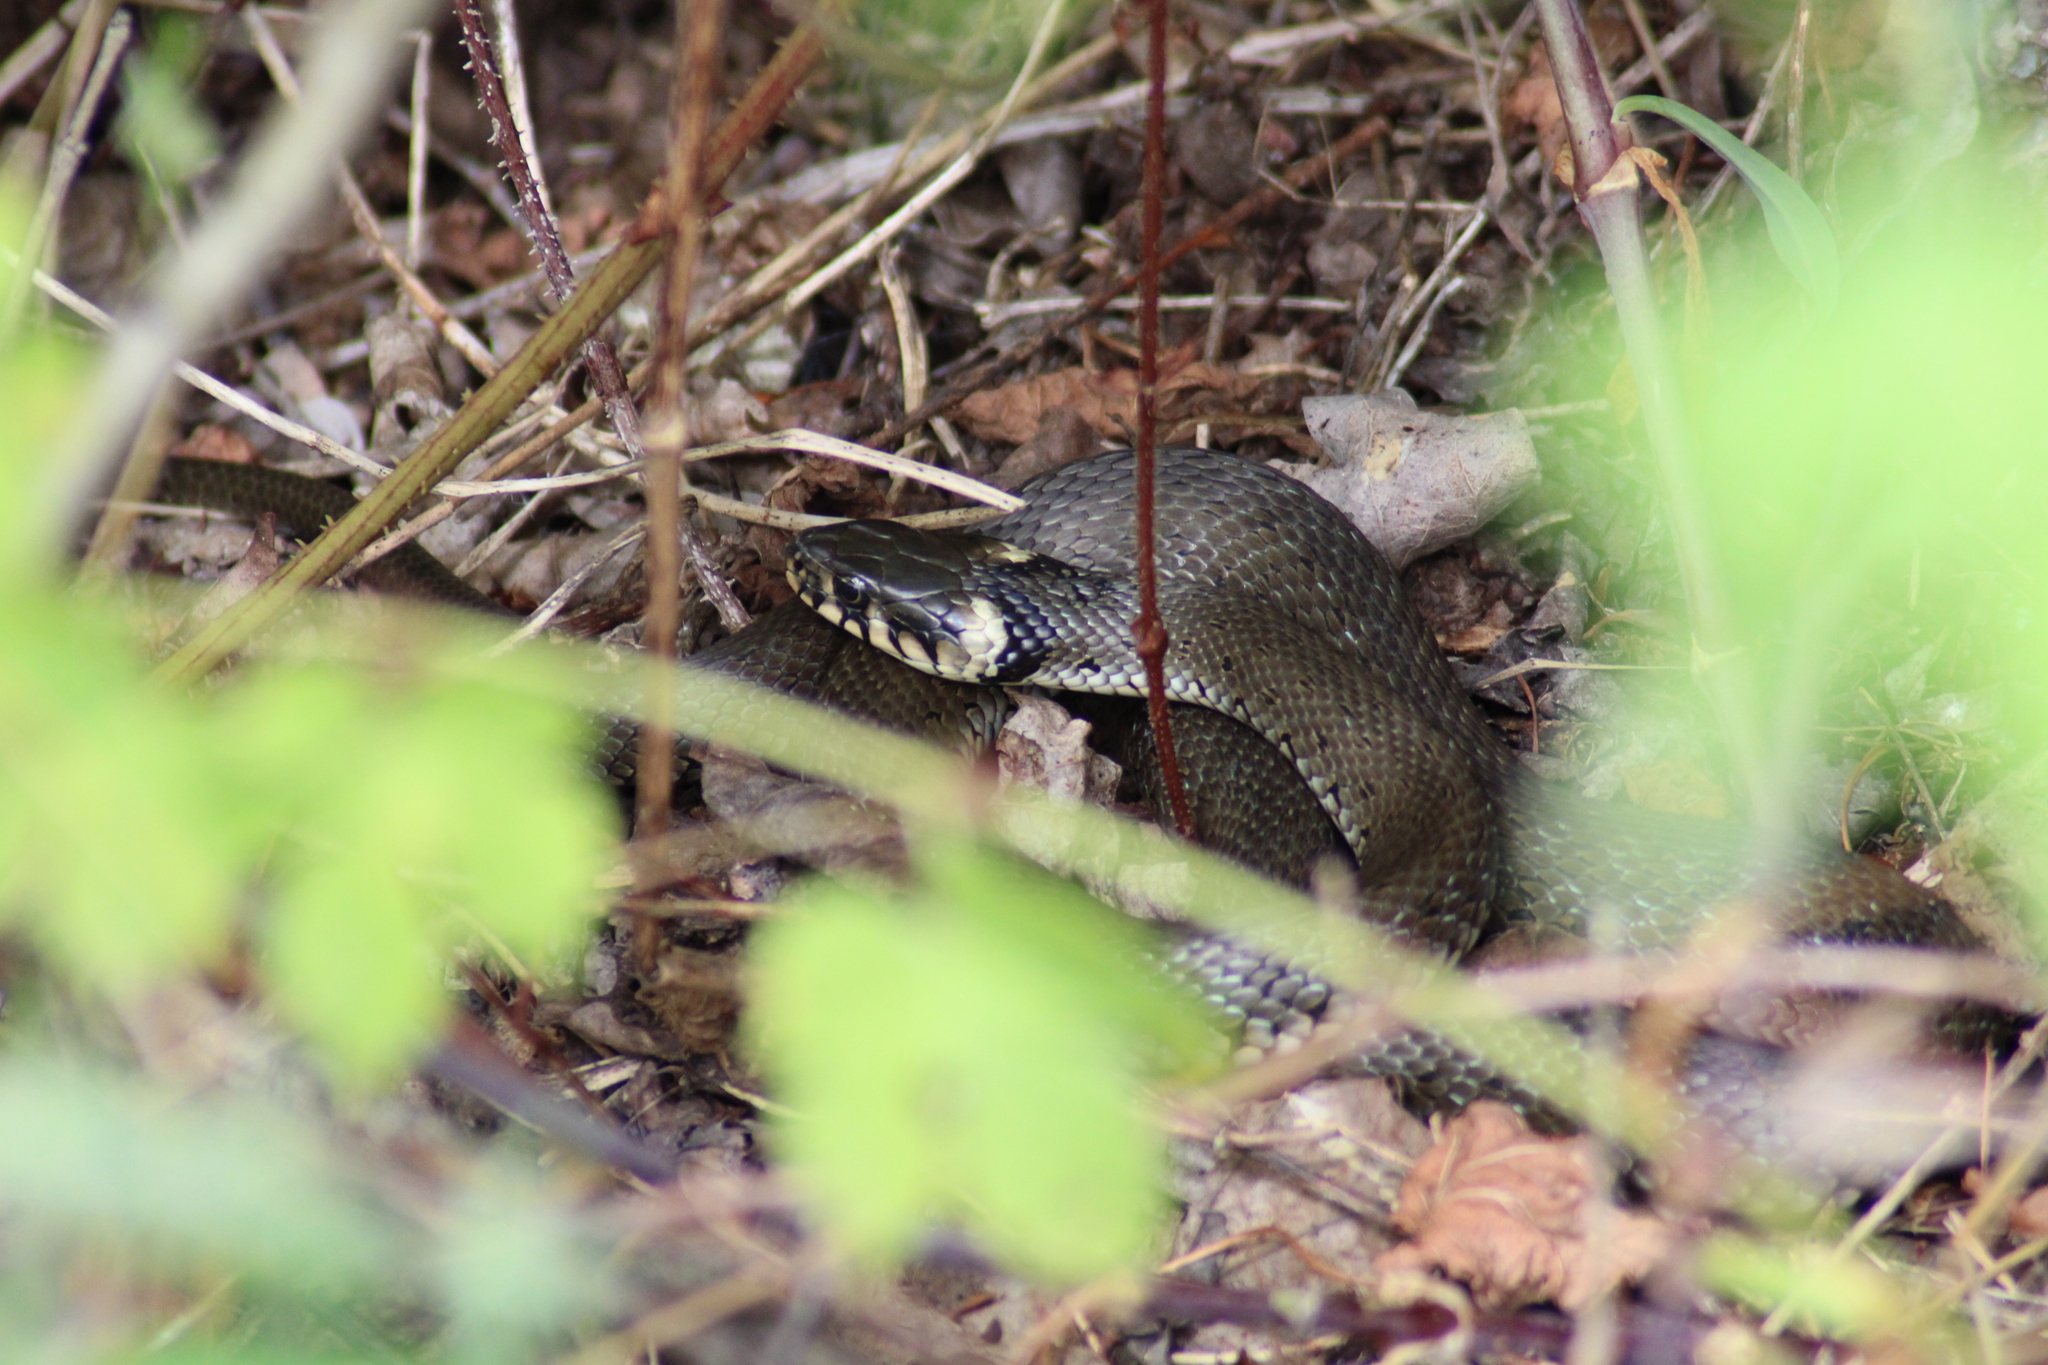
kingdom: Animalia
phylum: Chordata
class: Squamata
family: Colubridae
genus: Natrix
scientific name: Natrix natrix
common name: Grass snake
